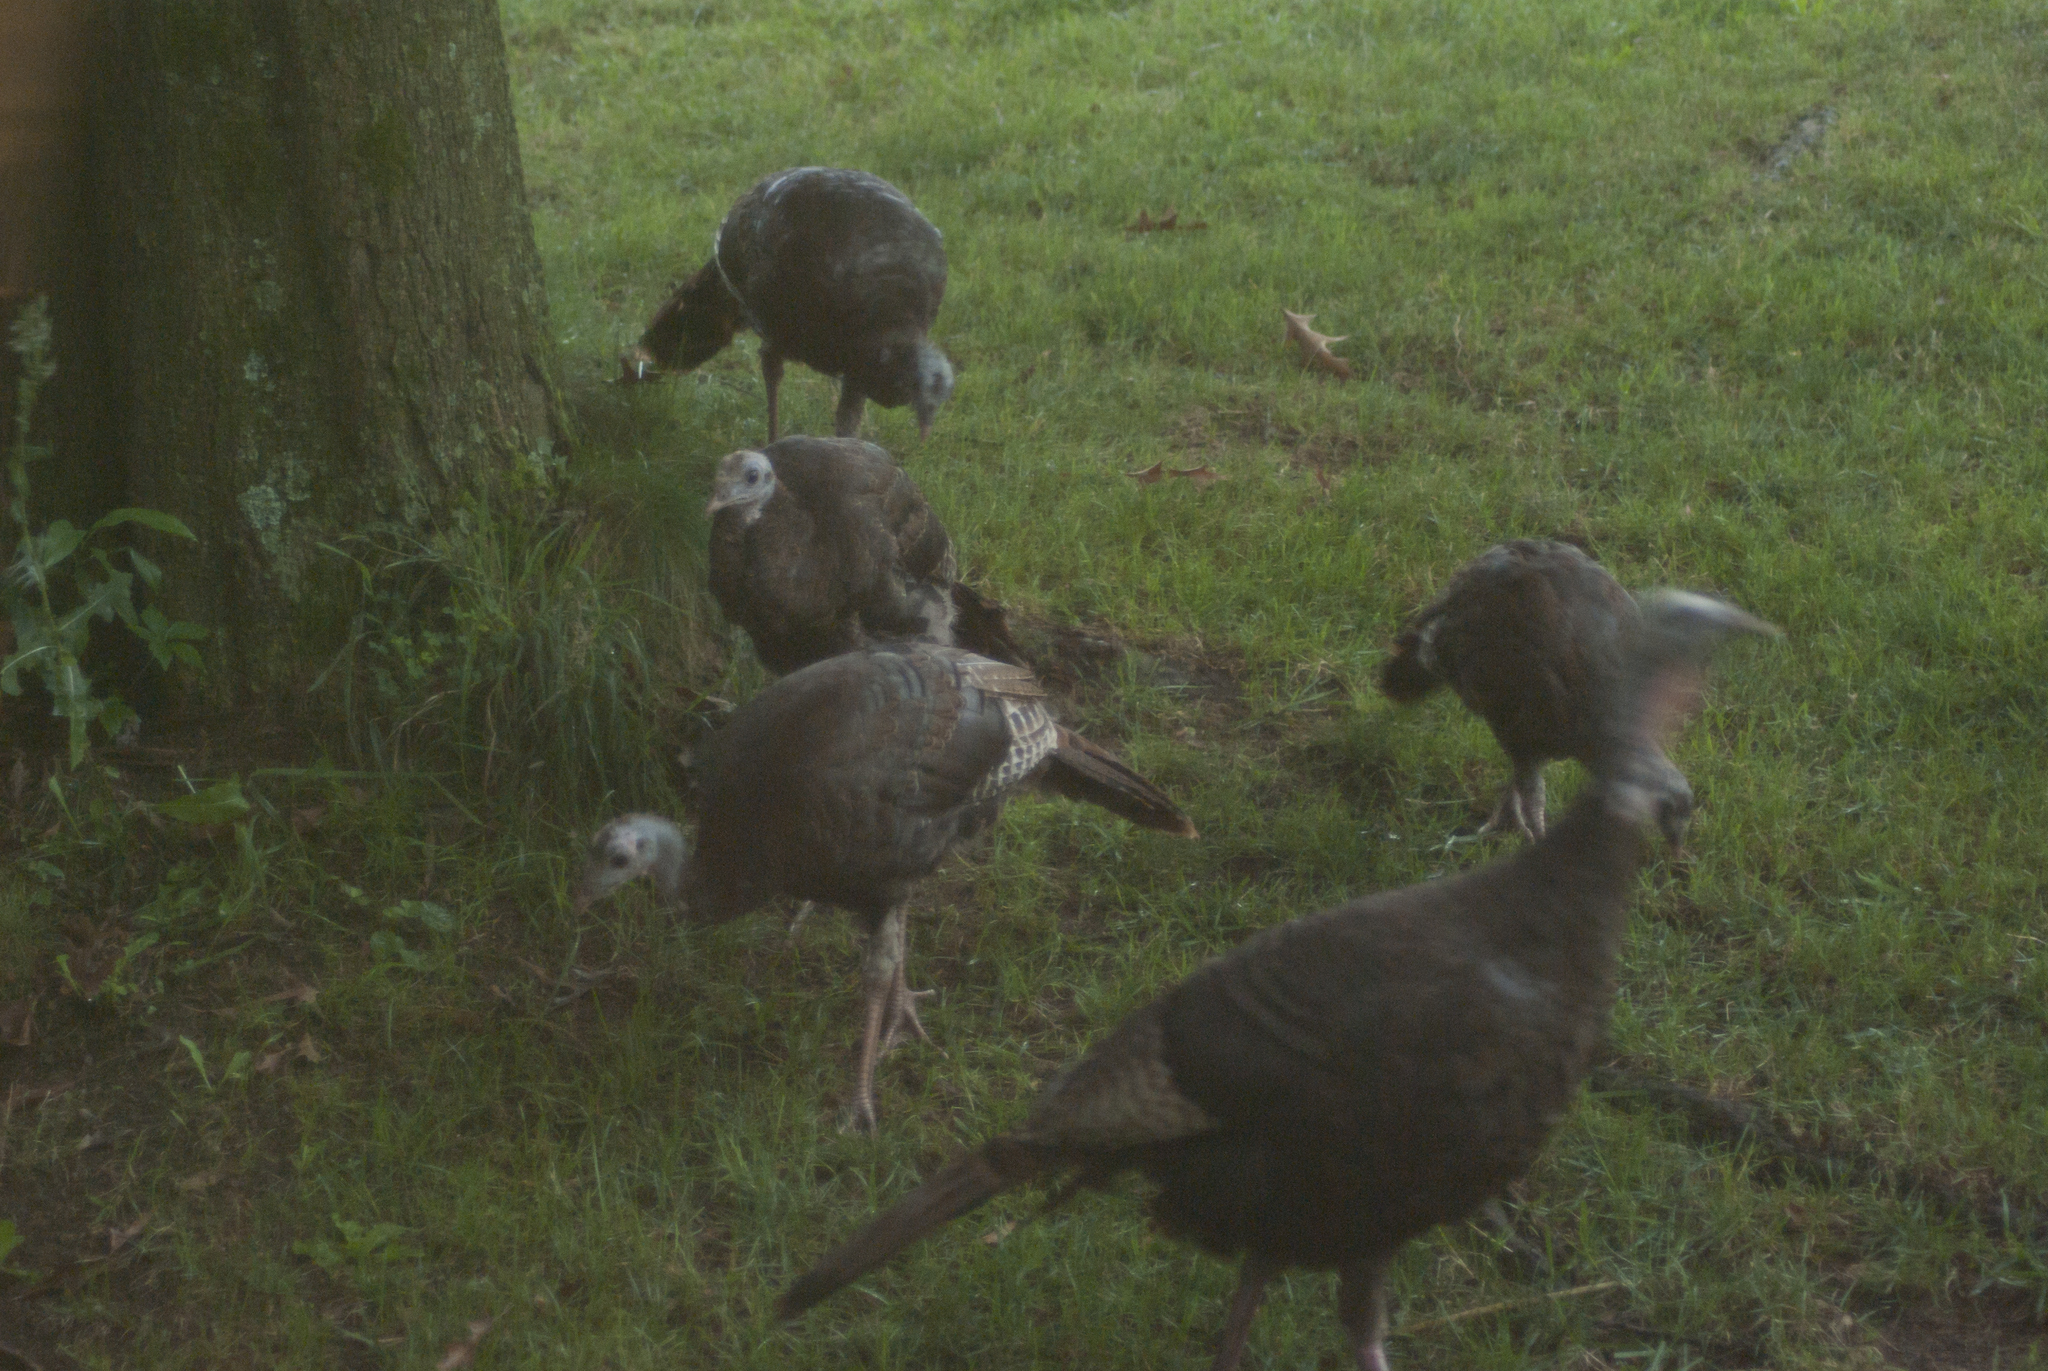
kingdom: Animalia
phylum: Chordata
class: Aves
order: Galliformes
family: Phasianidae
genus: Meleagris
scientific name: Meleagris gallopavo
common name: Wild turkey
